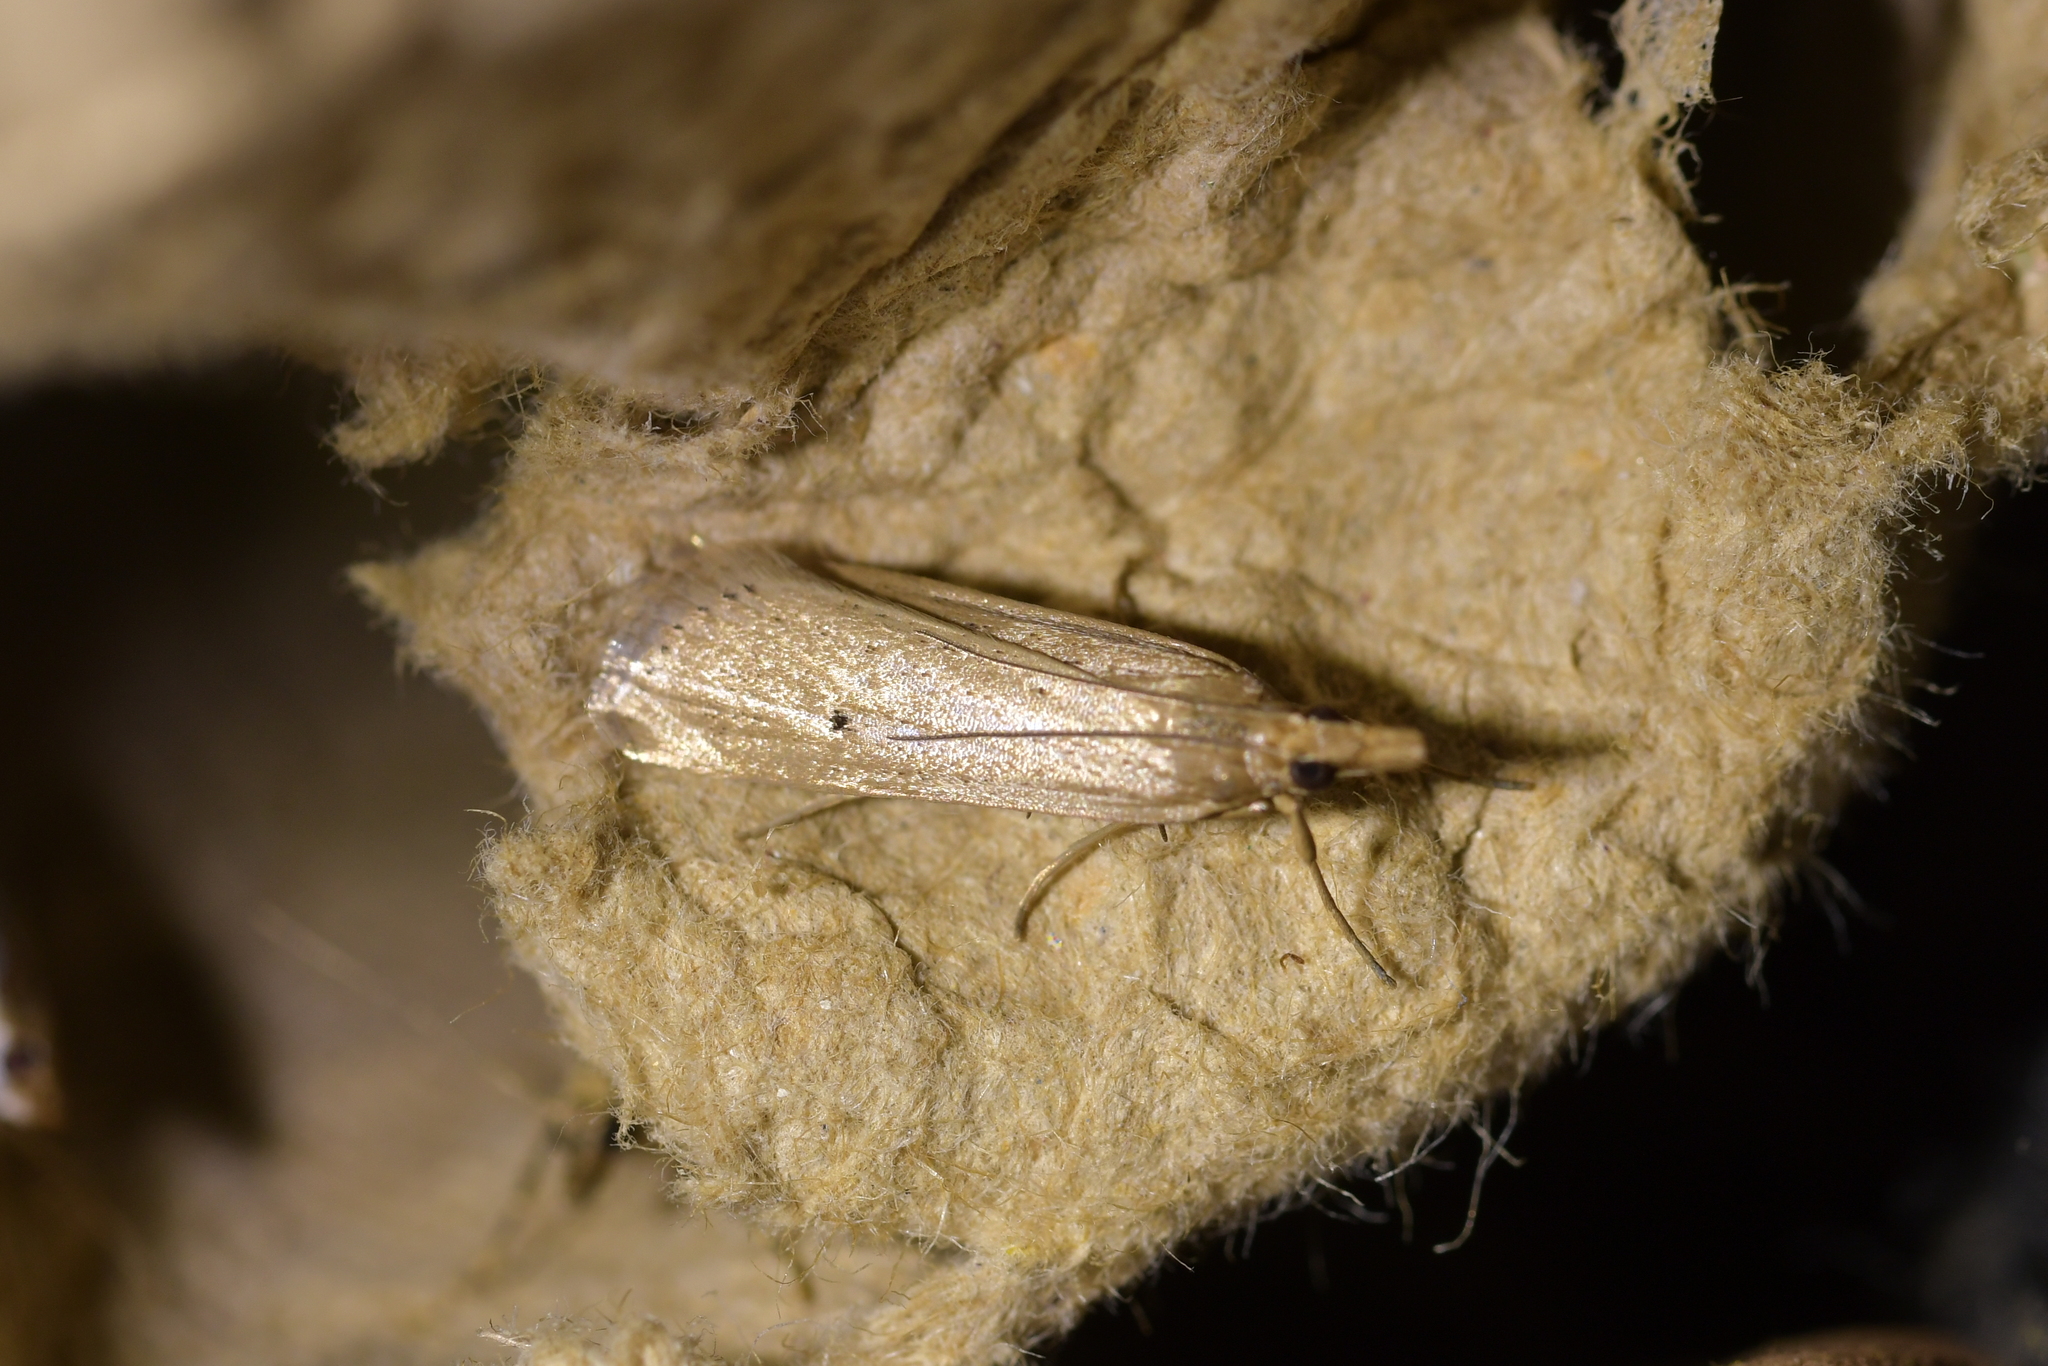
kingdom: Animalia
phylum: Arthropoda
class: Insecta
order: Lepidoptera
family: Crambidae
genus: Eudonia
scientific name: Eudonia sabulosella
